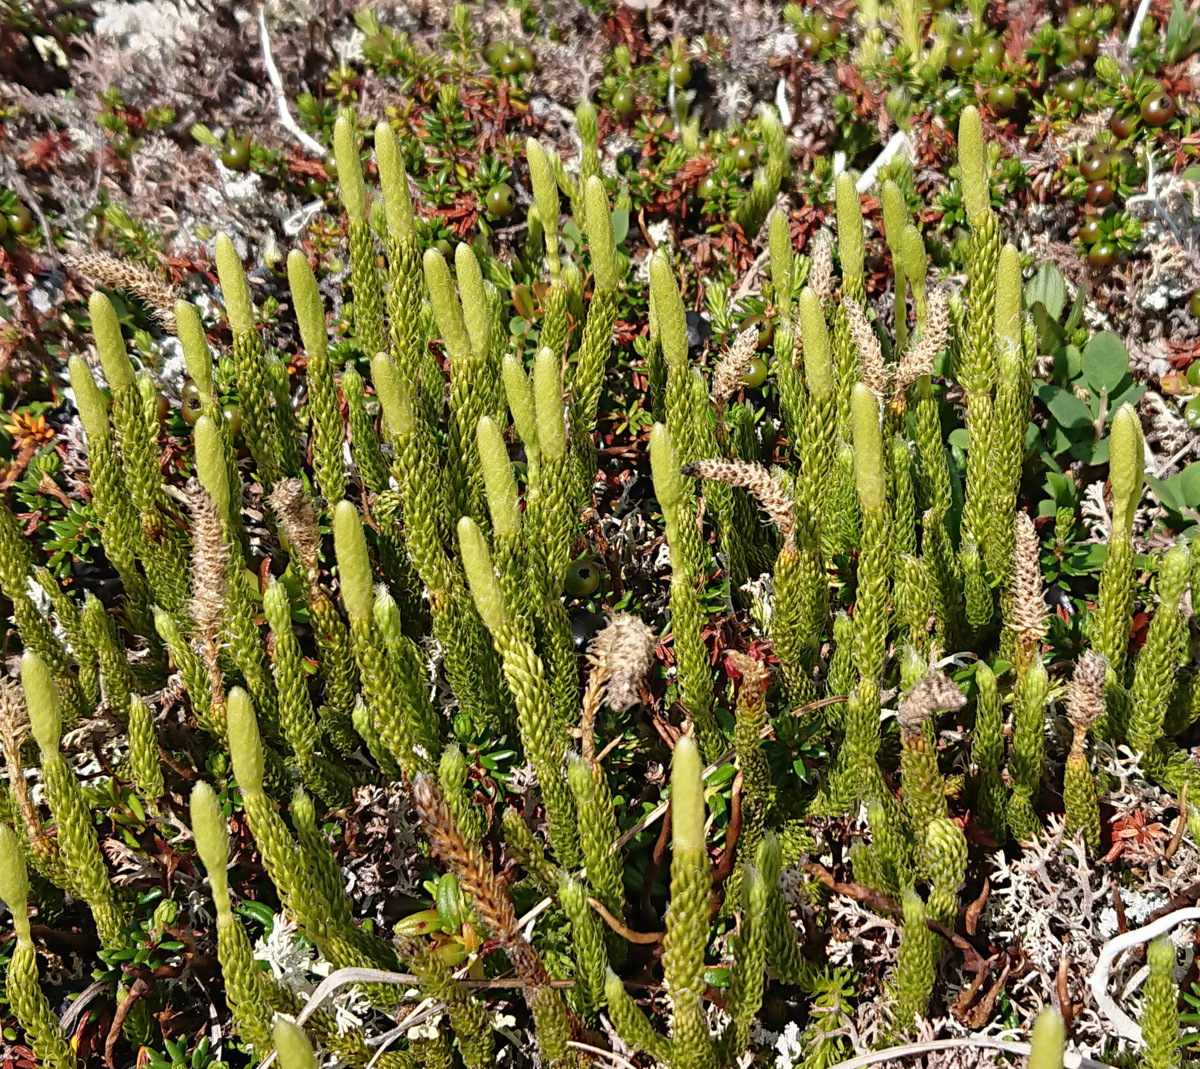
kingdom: Plantae
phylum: Tracheophyta
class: Lycopodiopsida
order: Lycopodiales
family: Lycopodiaceae
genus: Lycopodium
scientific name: Lycopodium lagopus
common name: One-cone clubmoss
